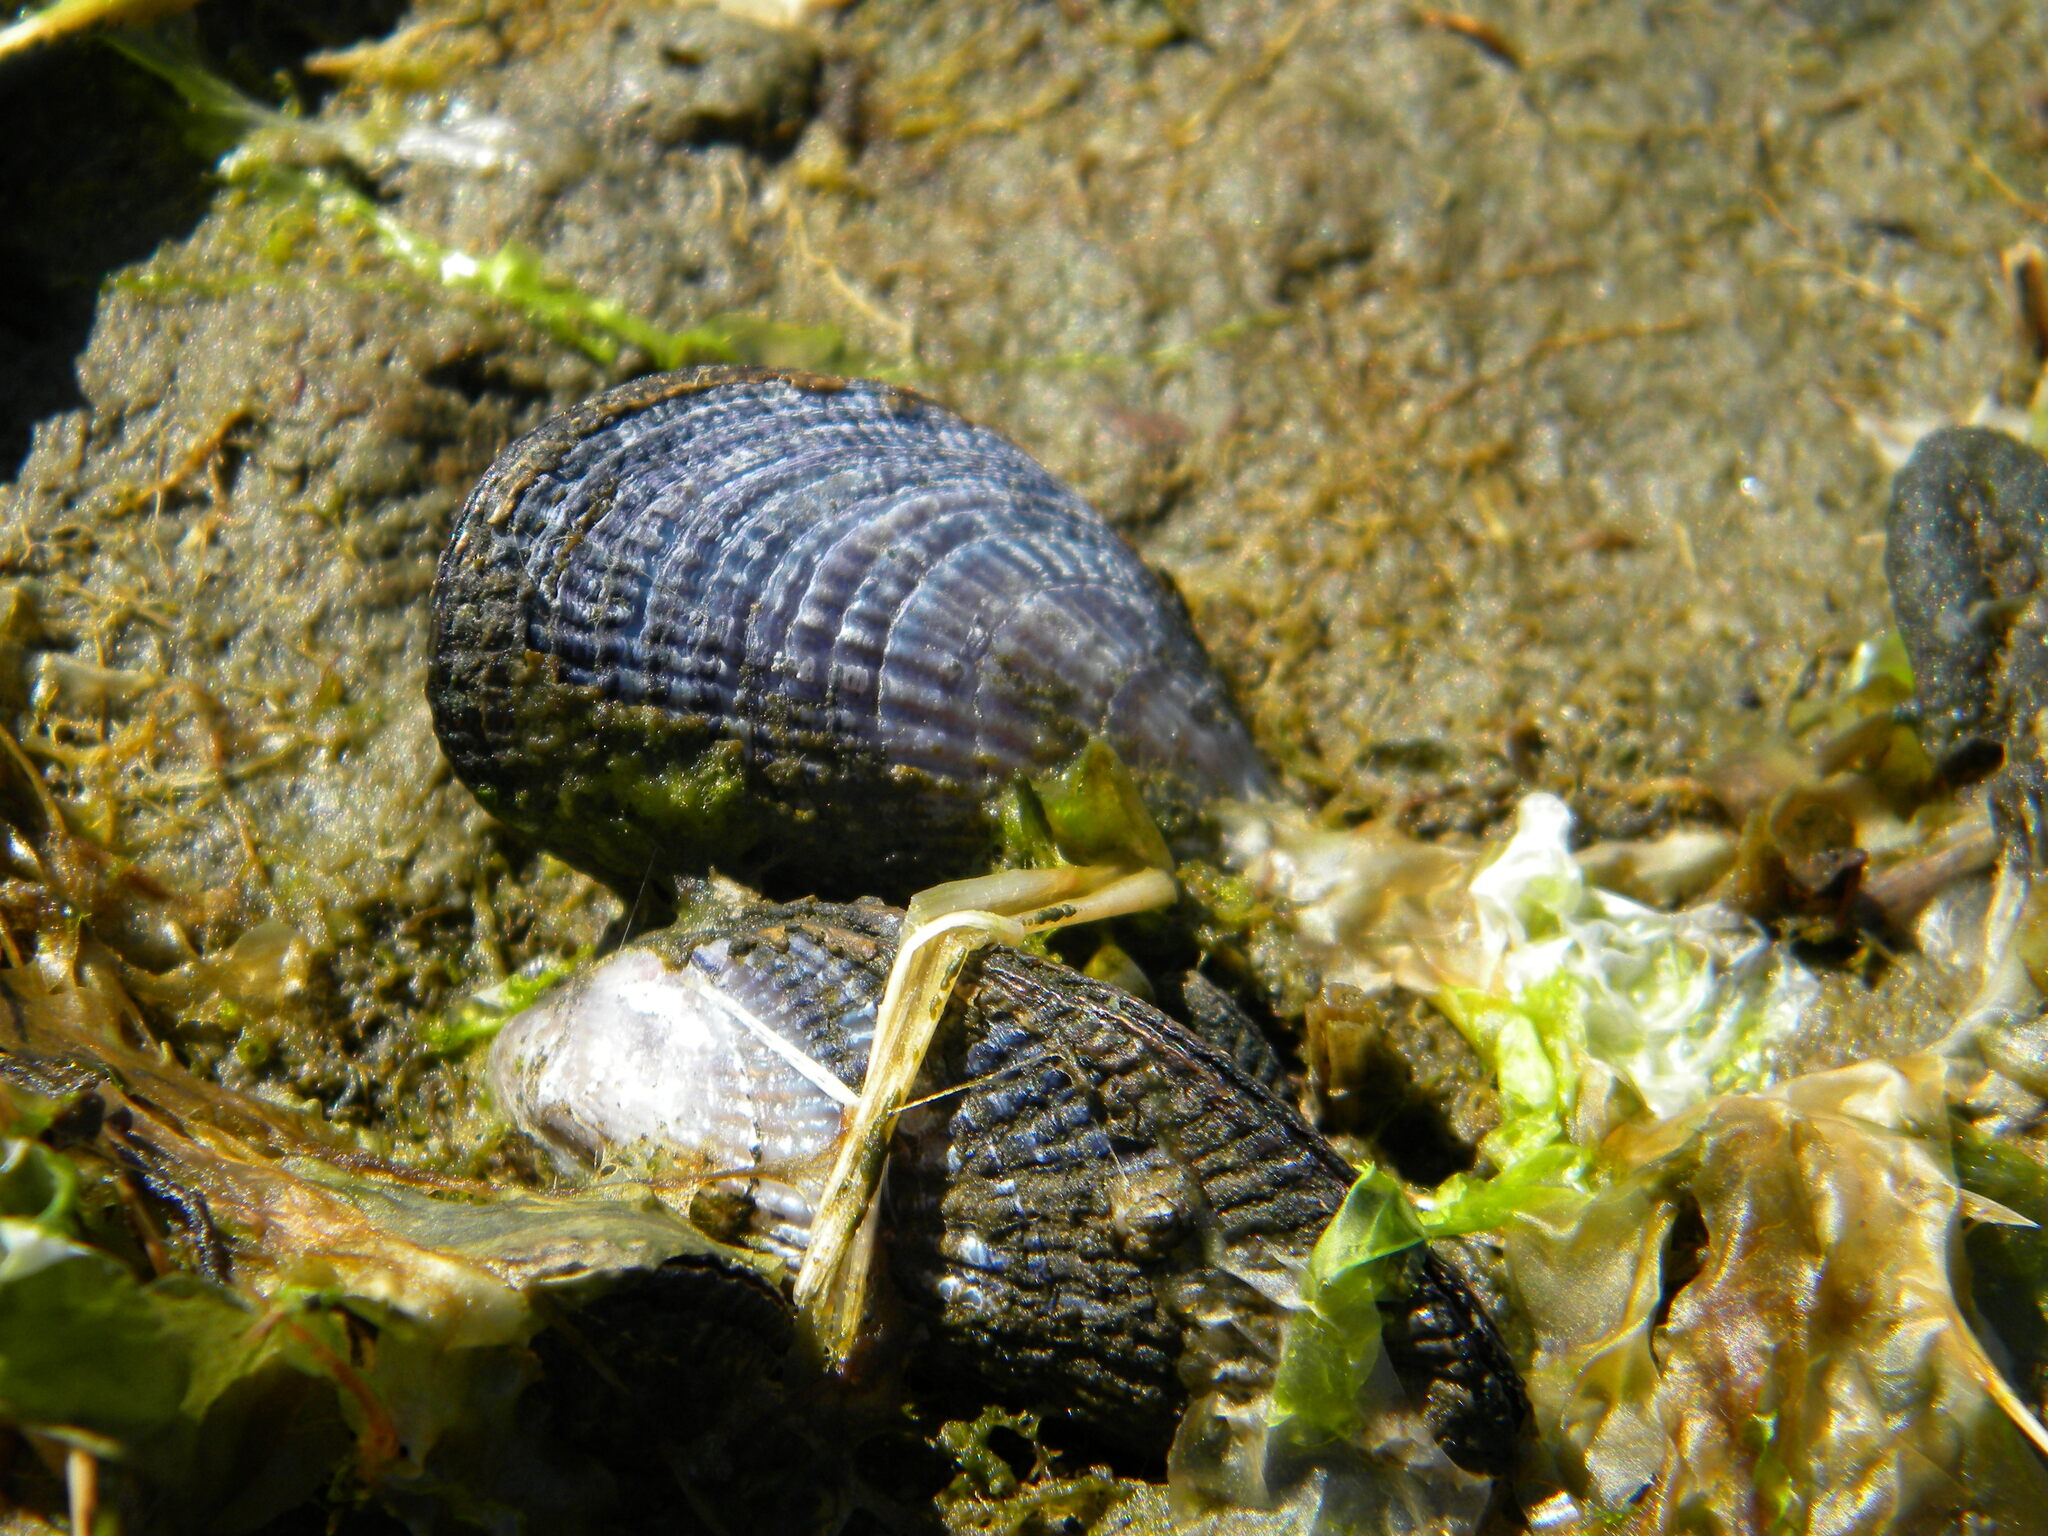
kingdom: Animalia
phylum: Mollusca
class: Bivalvia
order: Mytilida
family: Mytilidae
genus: Geukensia
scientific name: Geukensia demissa
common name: Ribbed mussel
